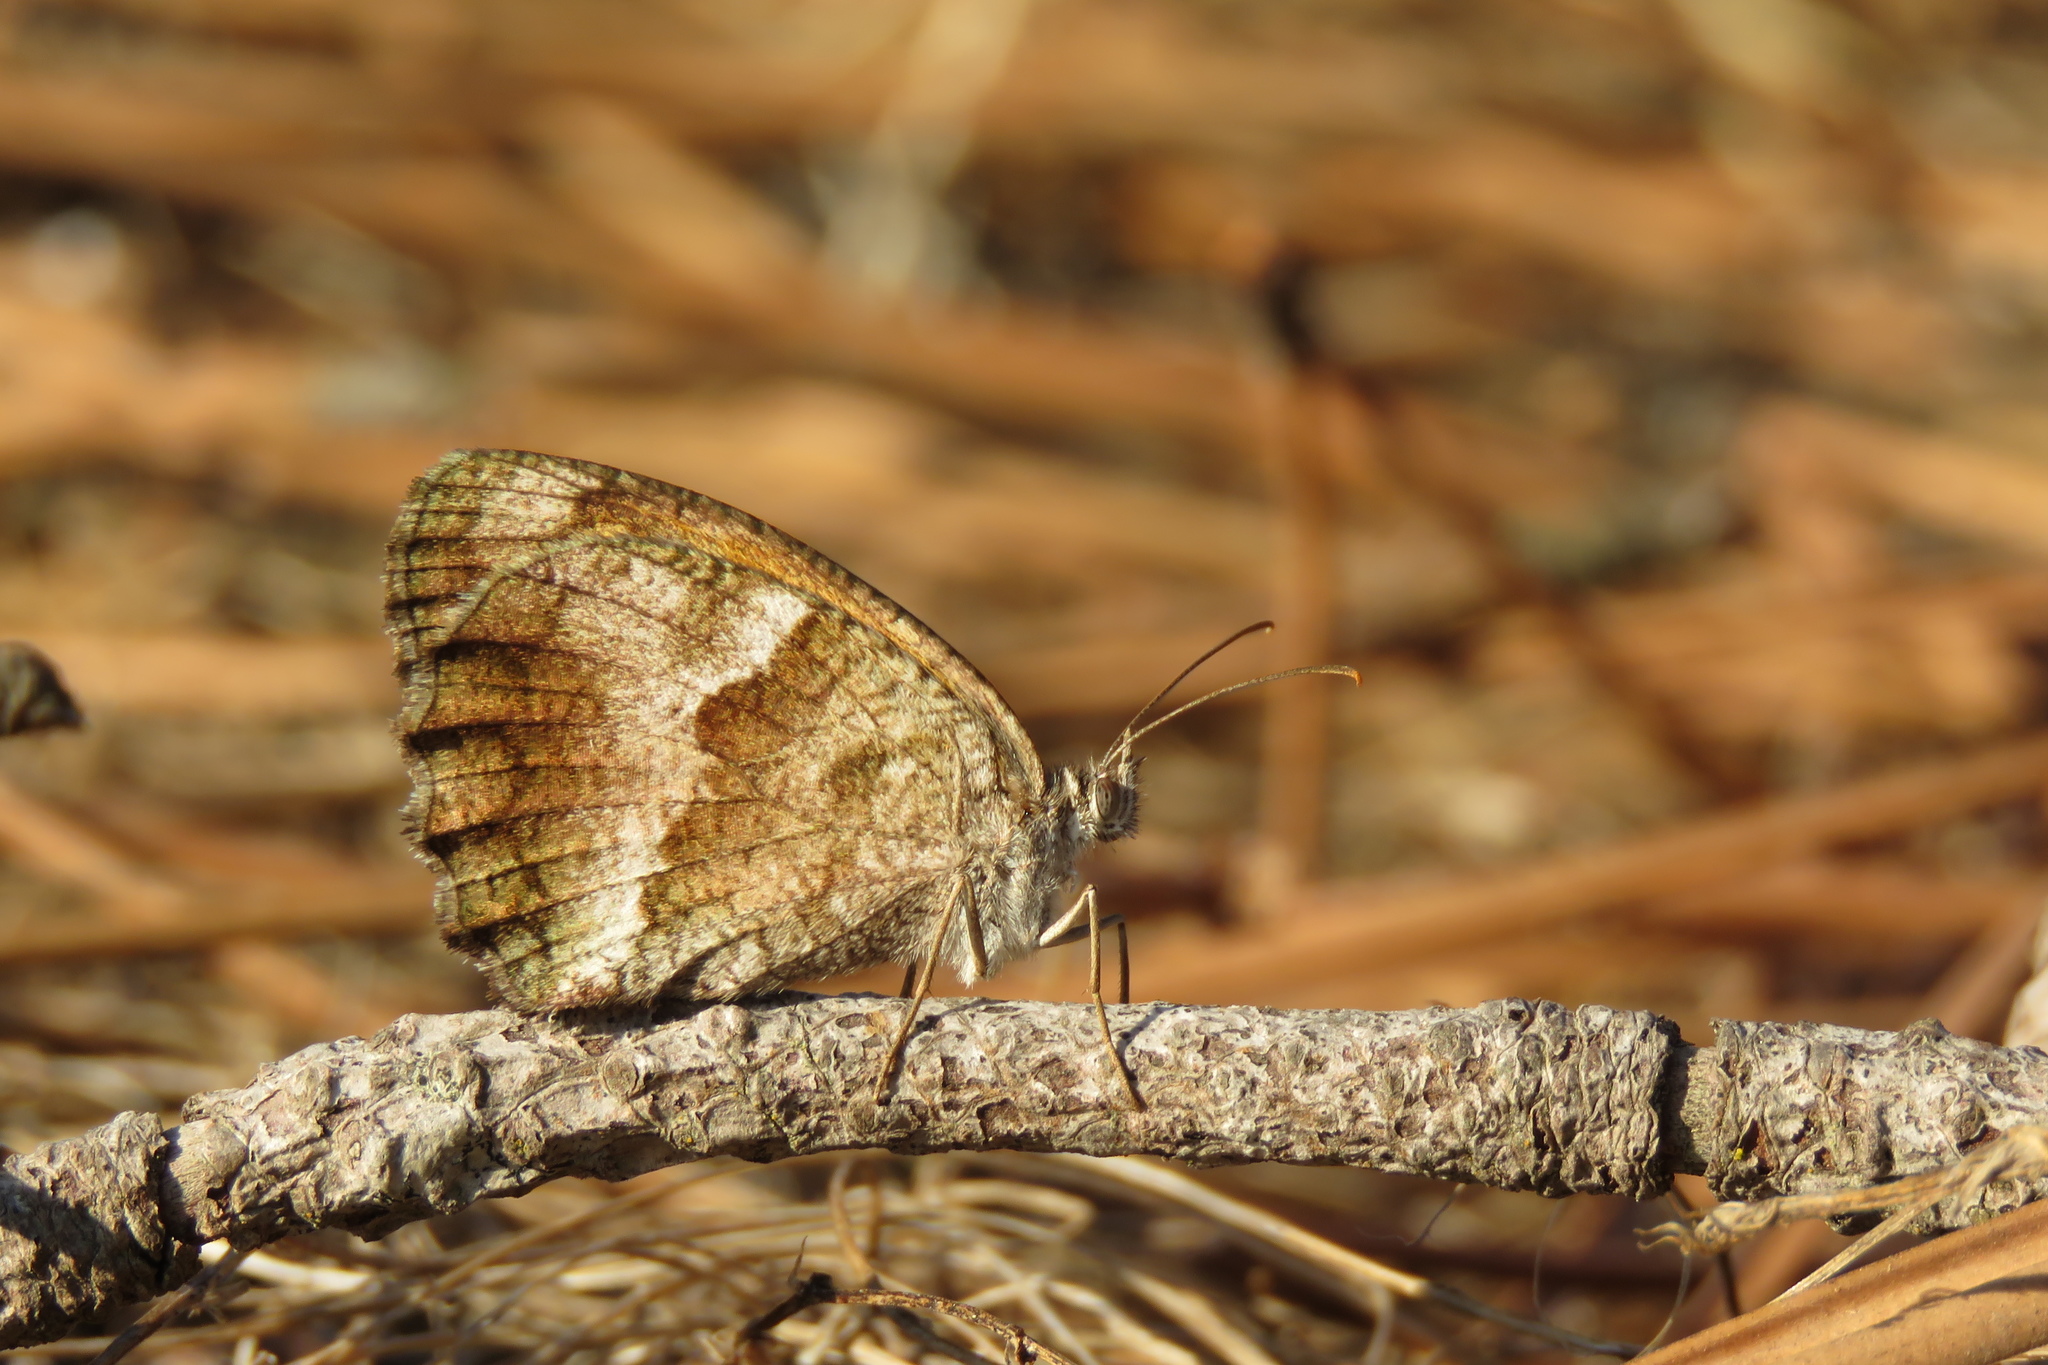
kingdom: Animalia
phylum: Arthropoda
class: Insecta
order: Lepidoptera
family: Nymphalidae
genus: Pyronia
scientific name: Pyronia cecilia
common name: Southern gatekeeper
